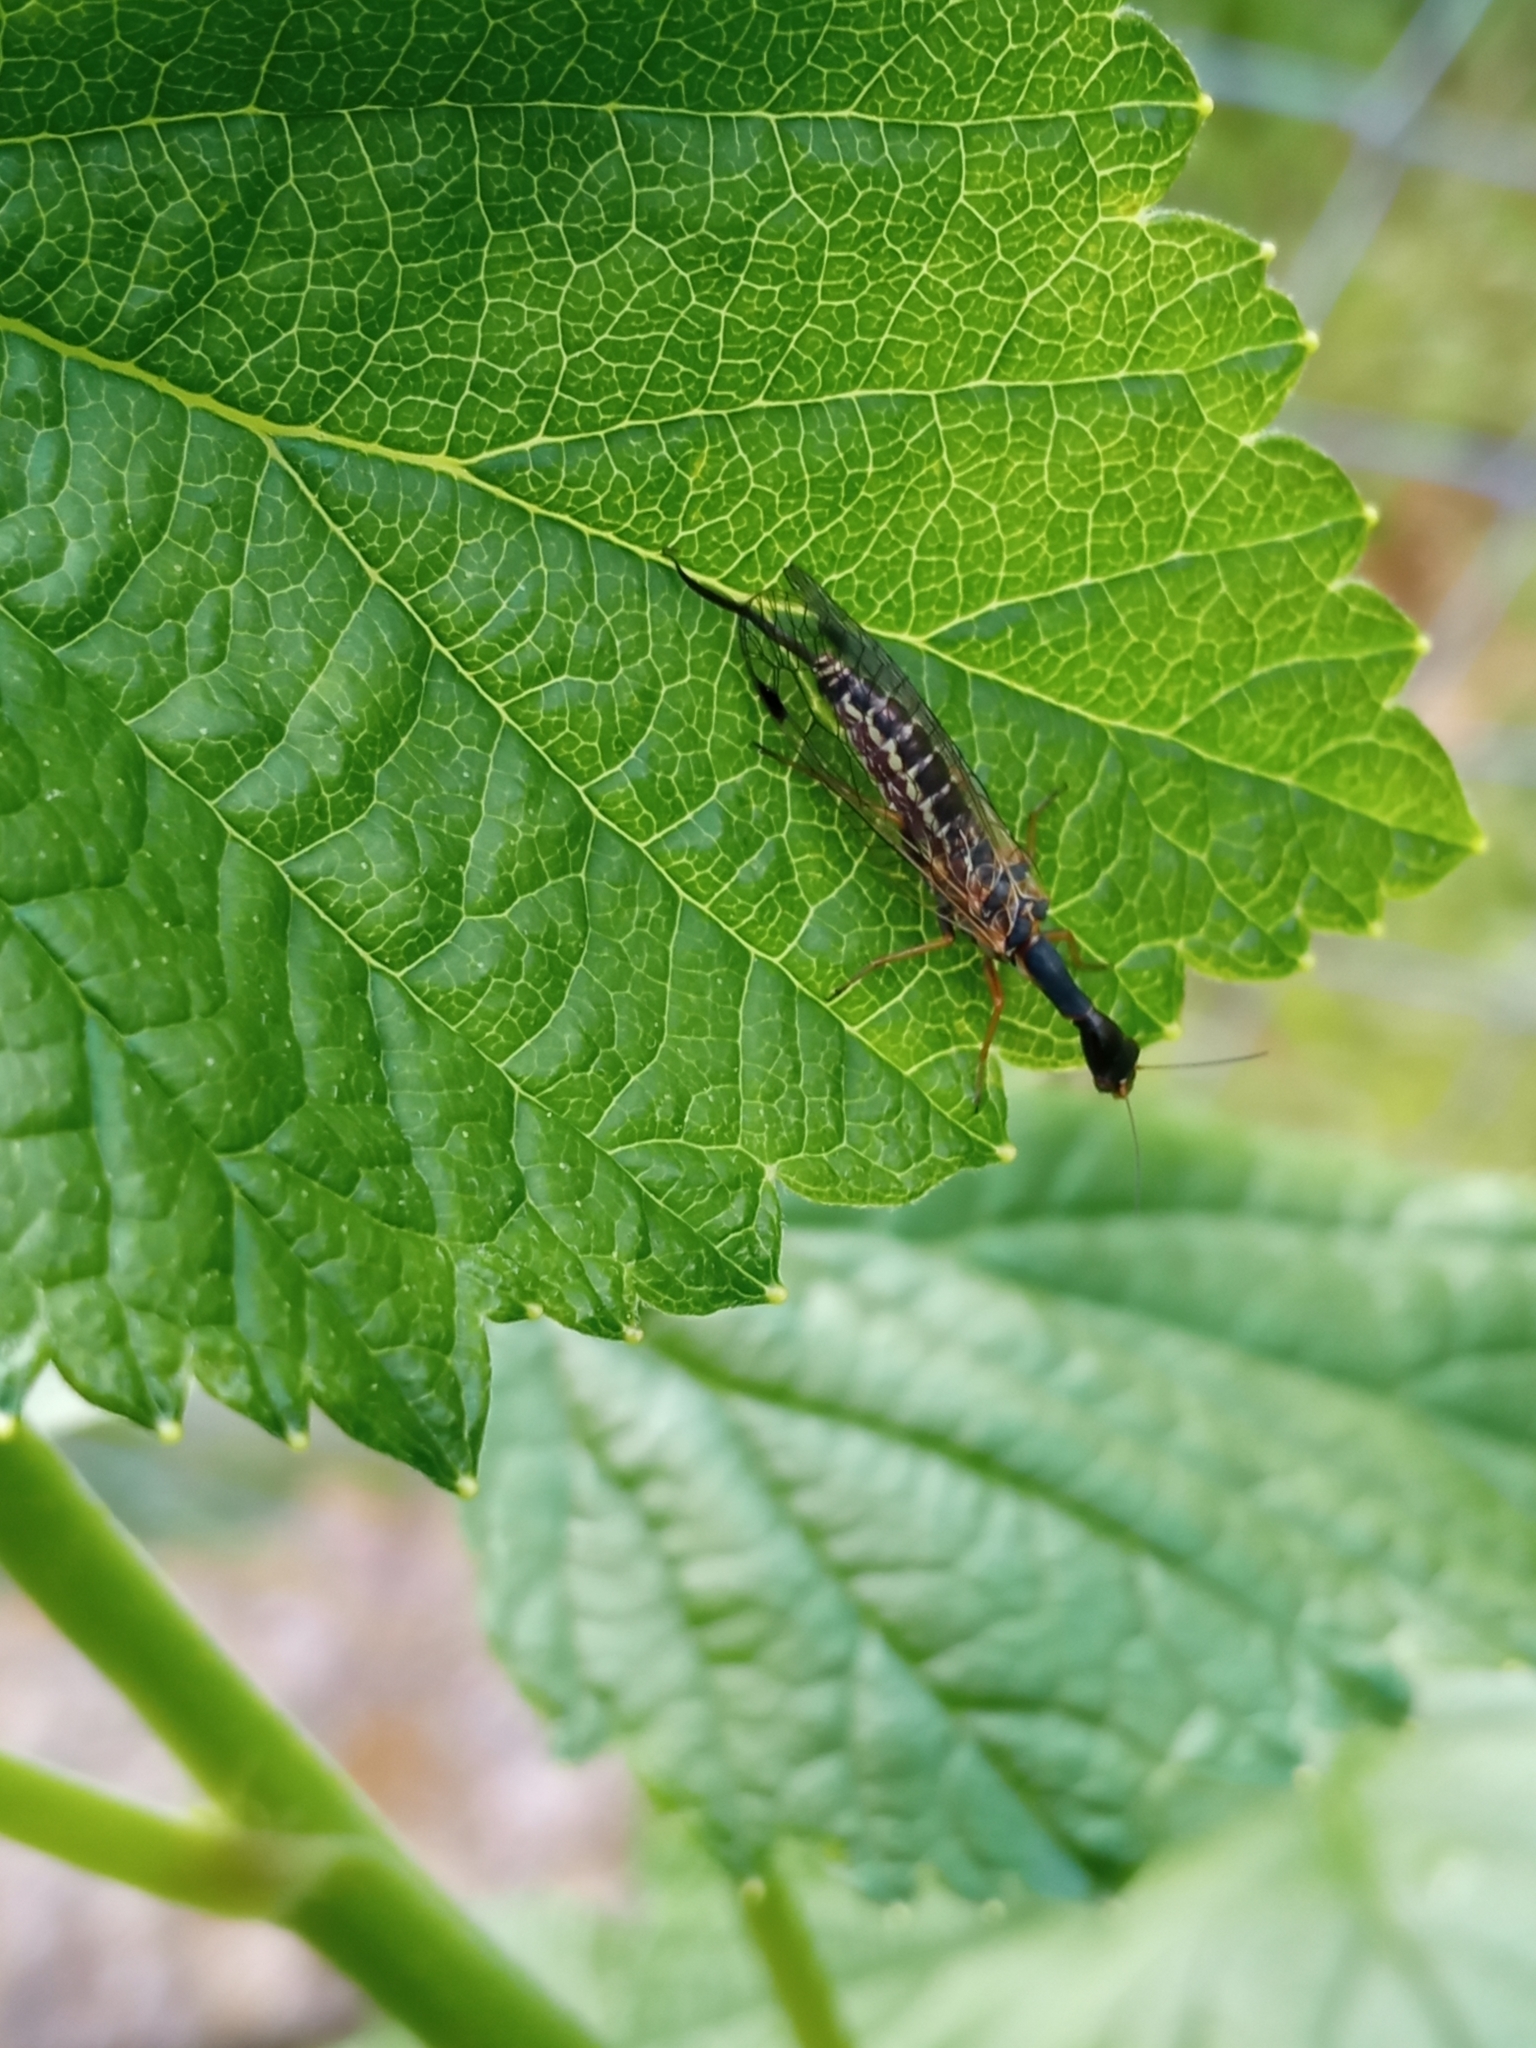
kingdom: Animalia
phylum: Arthropoda
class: Insecta
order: Raphidioptera
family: Raphidiidae
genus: Raphidia
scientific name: Raphidia ophiopsis
